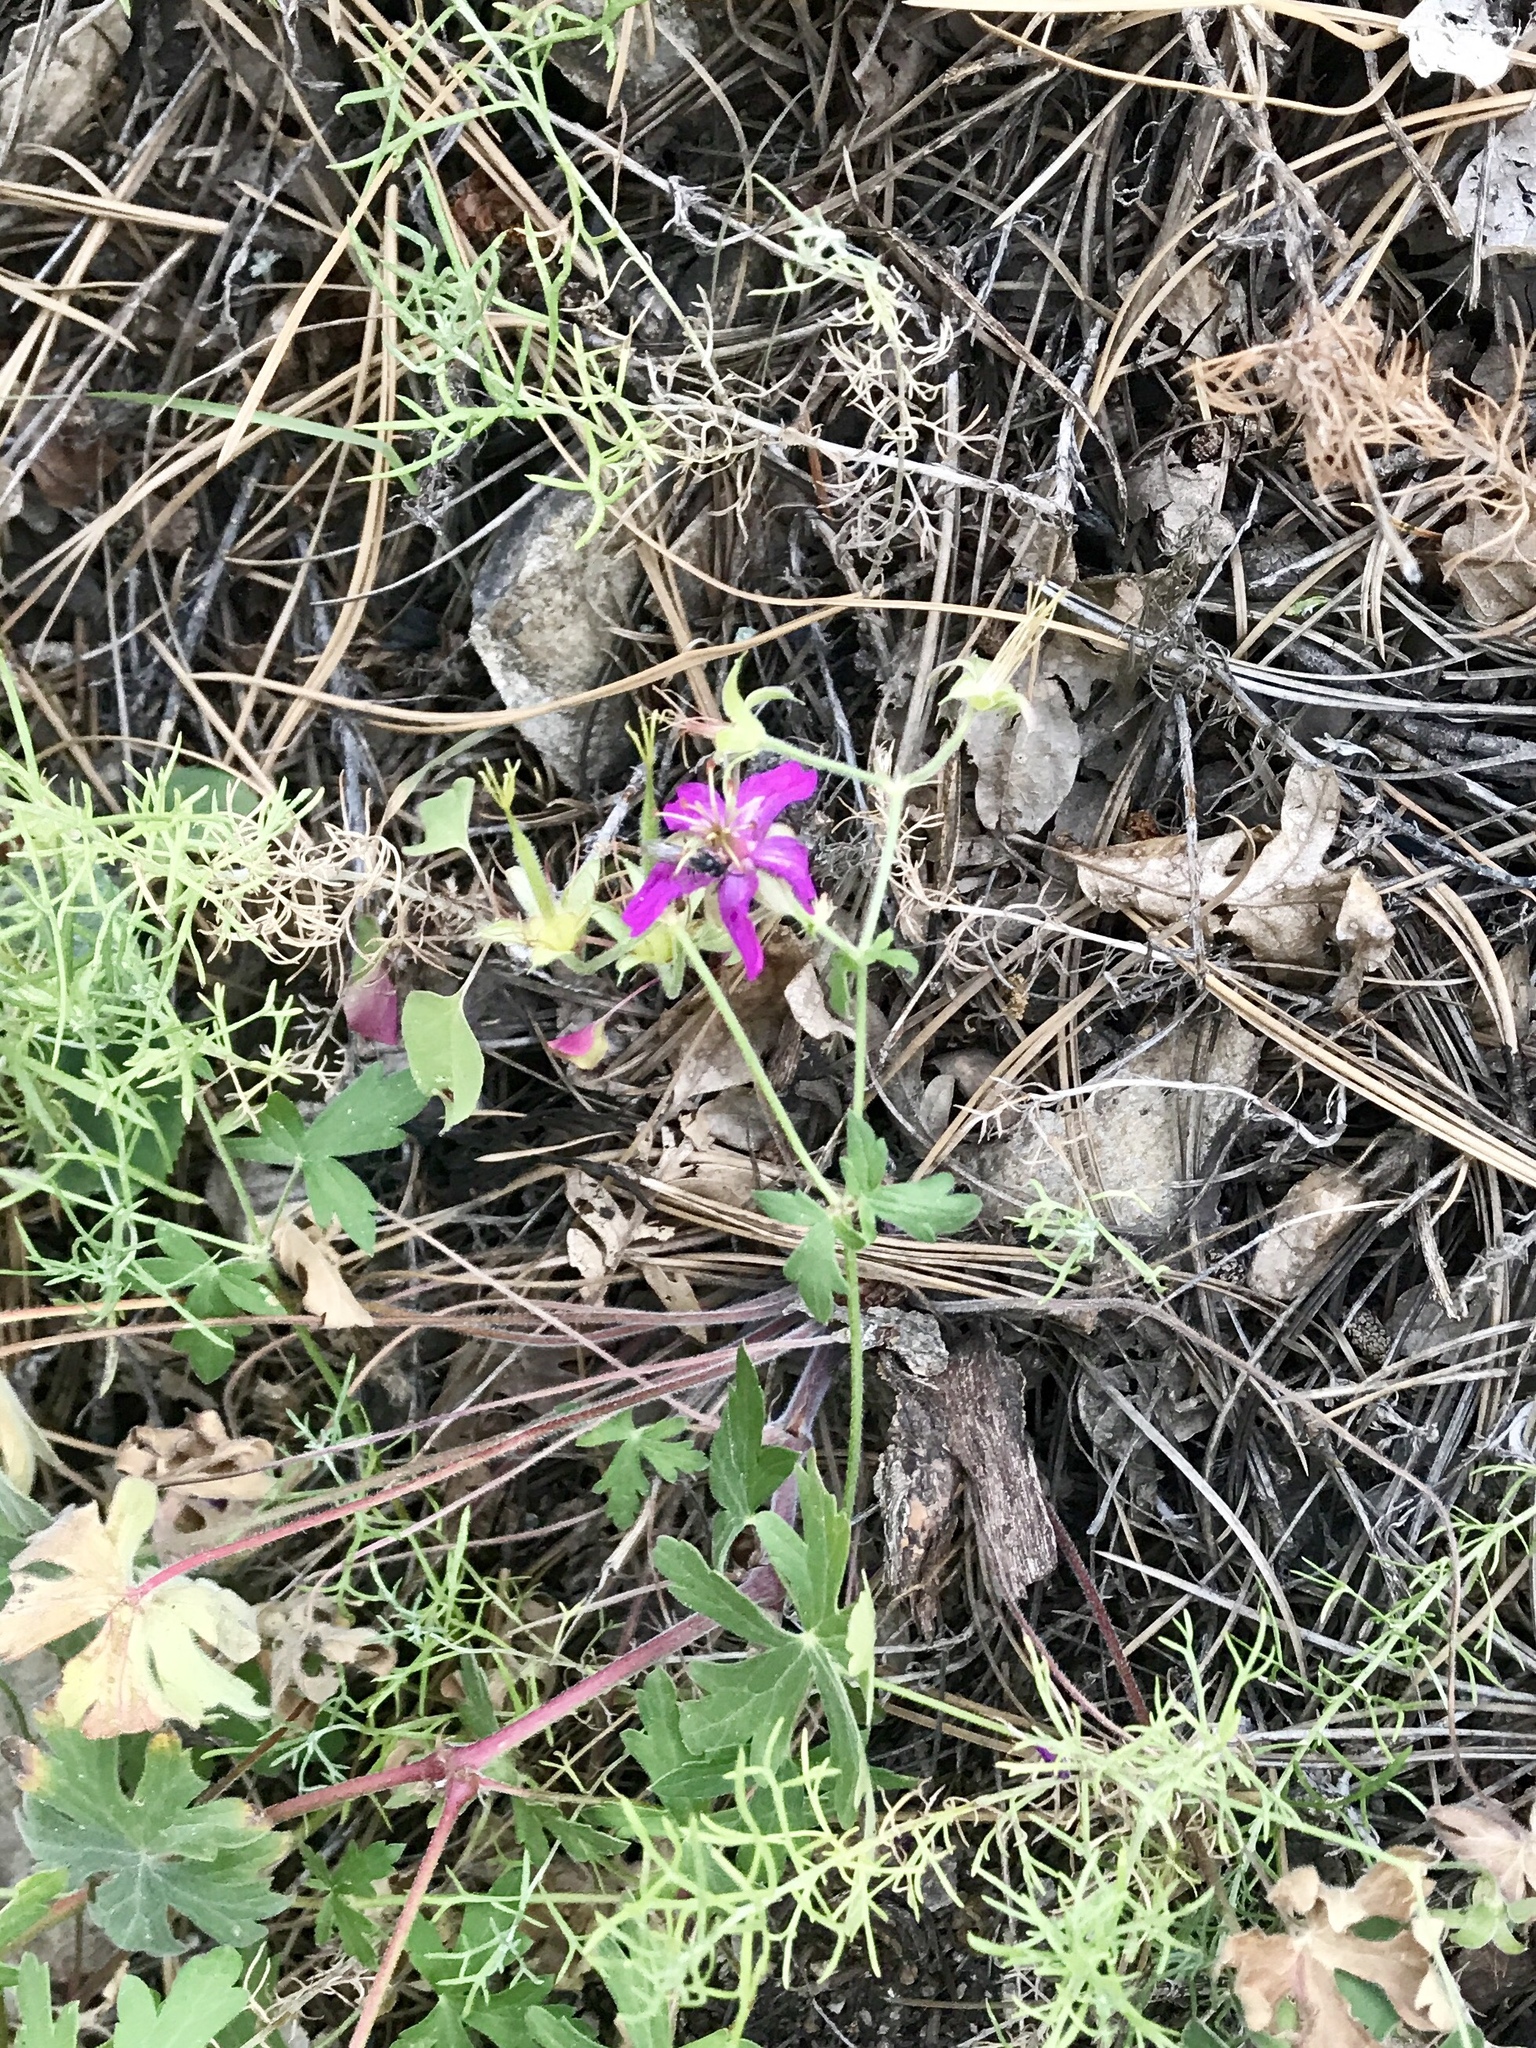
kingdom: Plantae
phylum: Tracheophyta
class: Magnoliopsida
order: Geraniales
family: Geraniaceae
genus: Geranium
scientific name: Geranium caespitosum
